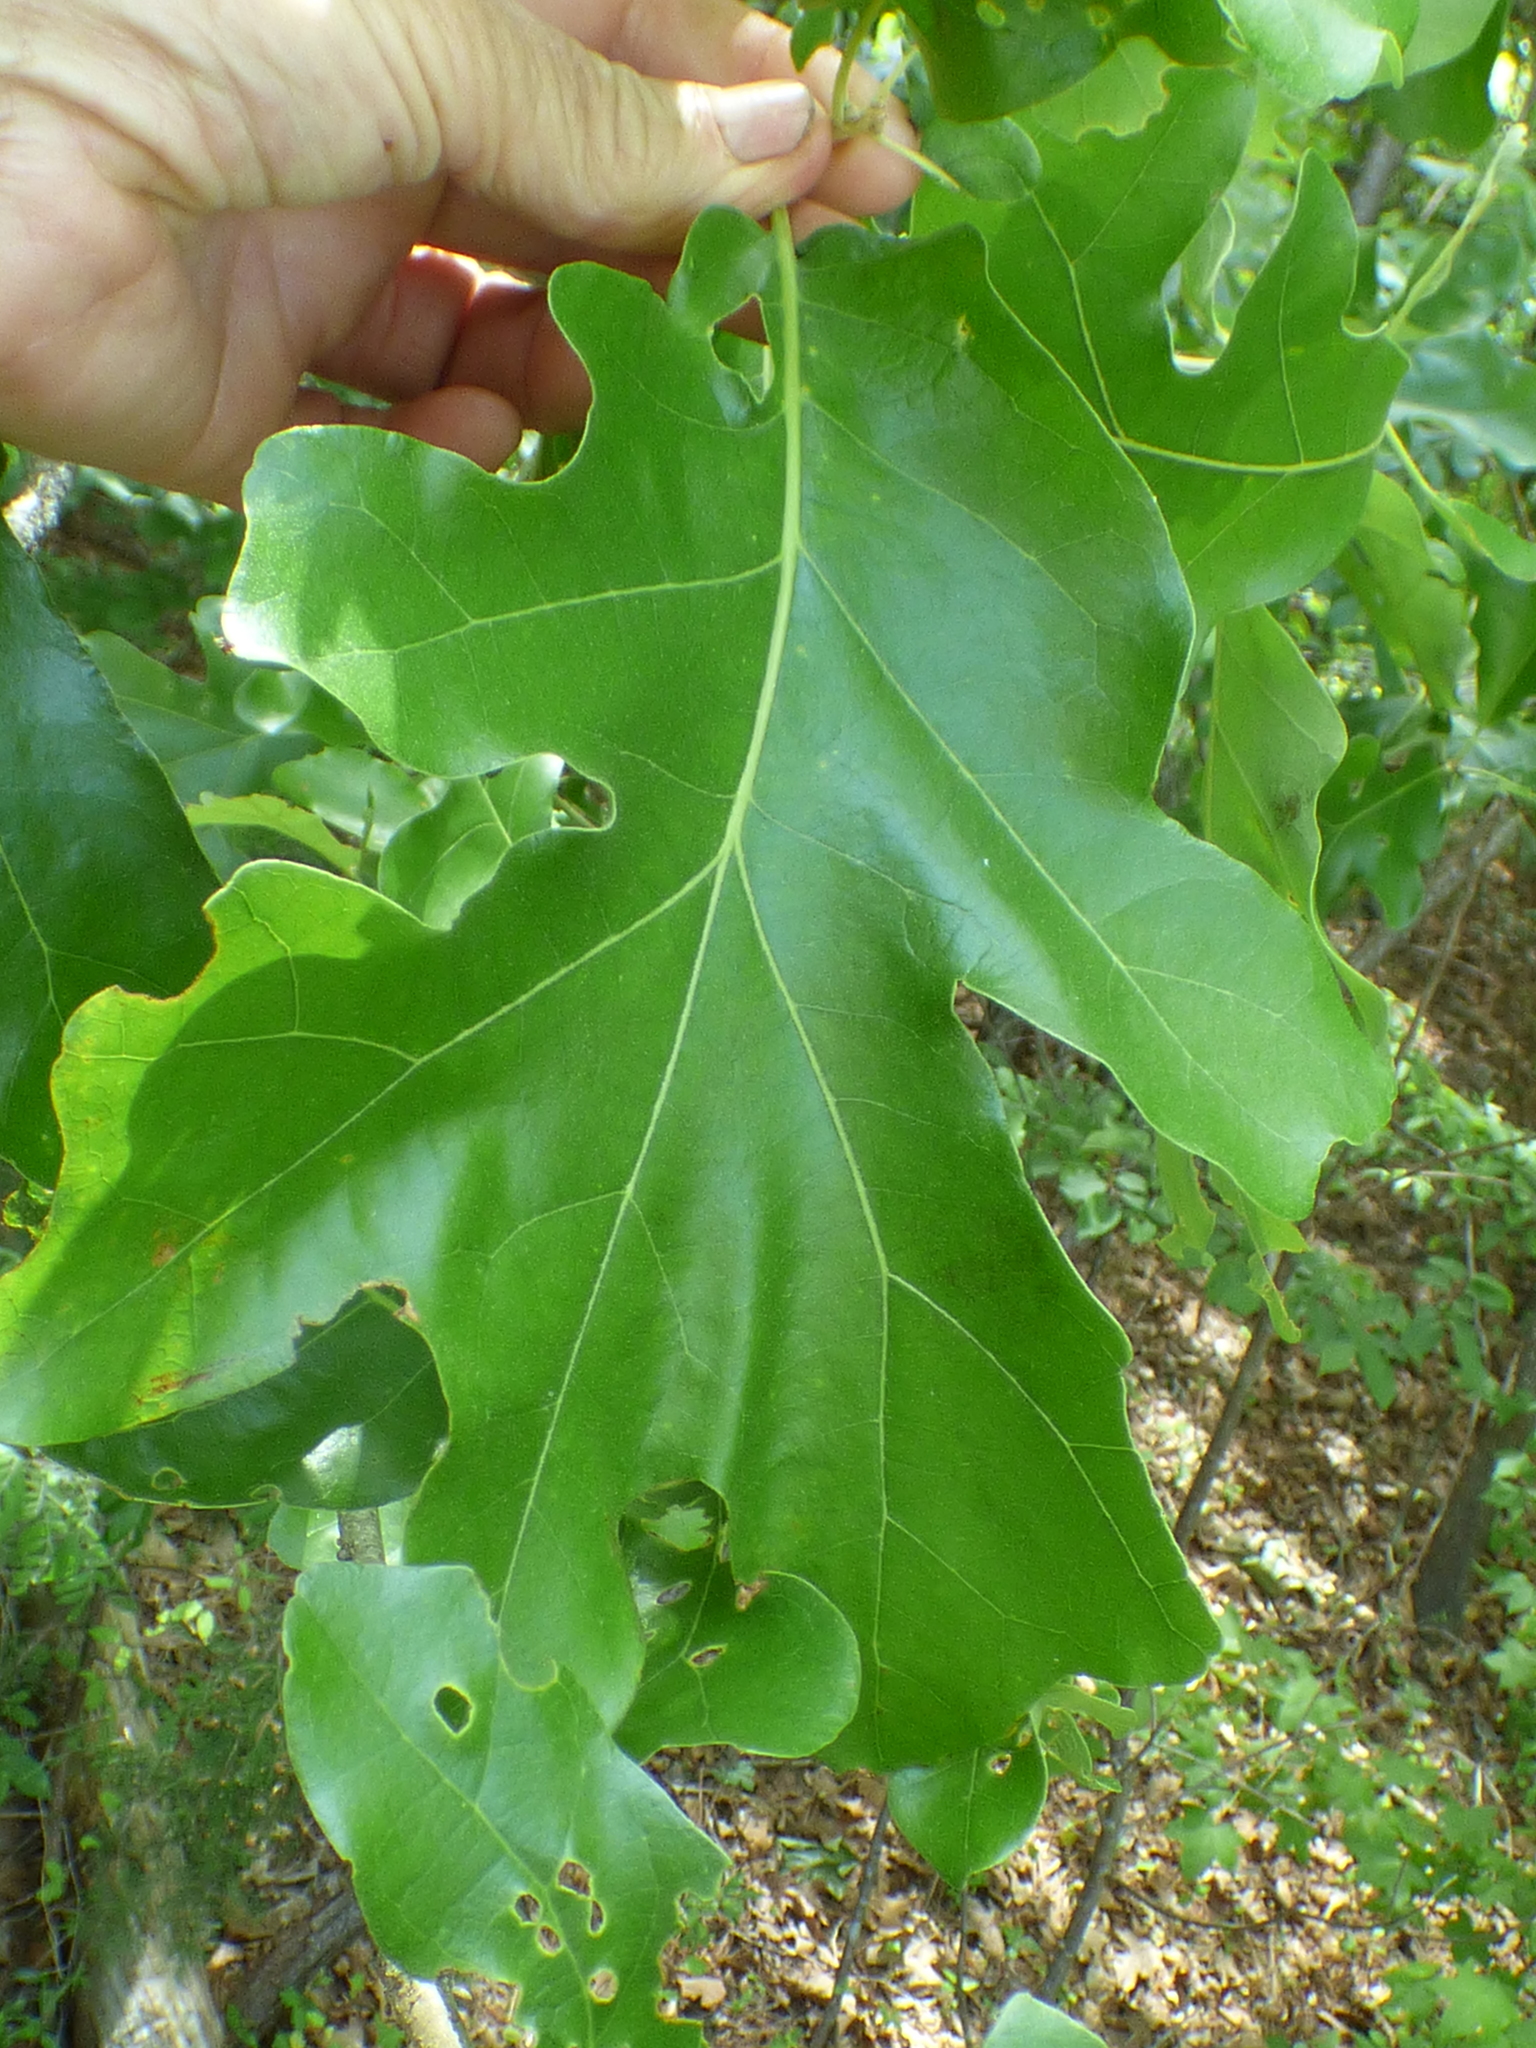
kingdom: Plantae
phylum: Tracheophyta
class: Magnoliopsida
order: Fagales
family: Fagaceae
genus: Quercus
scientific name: Quercus stellata
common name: Post oak
